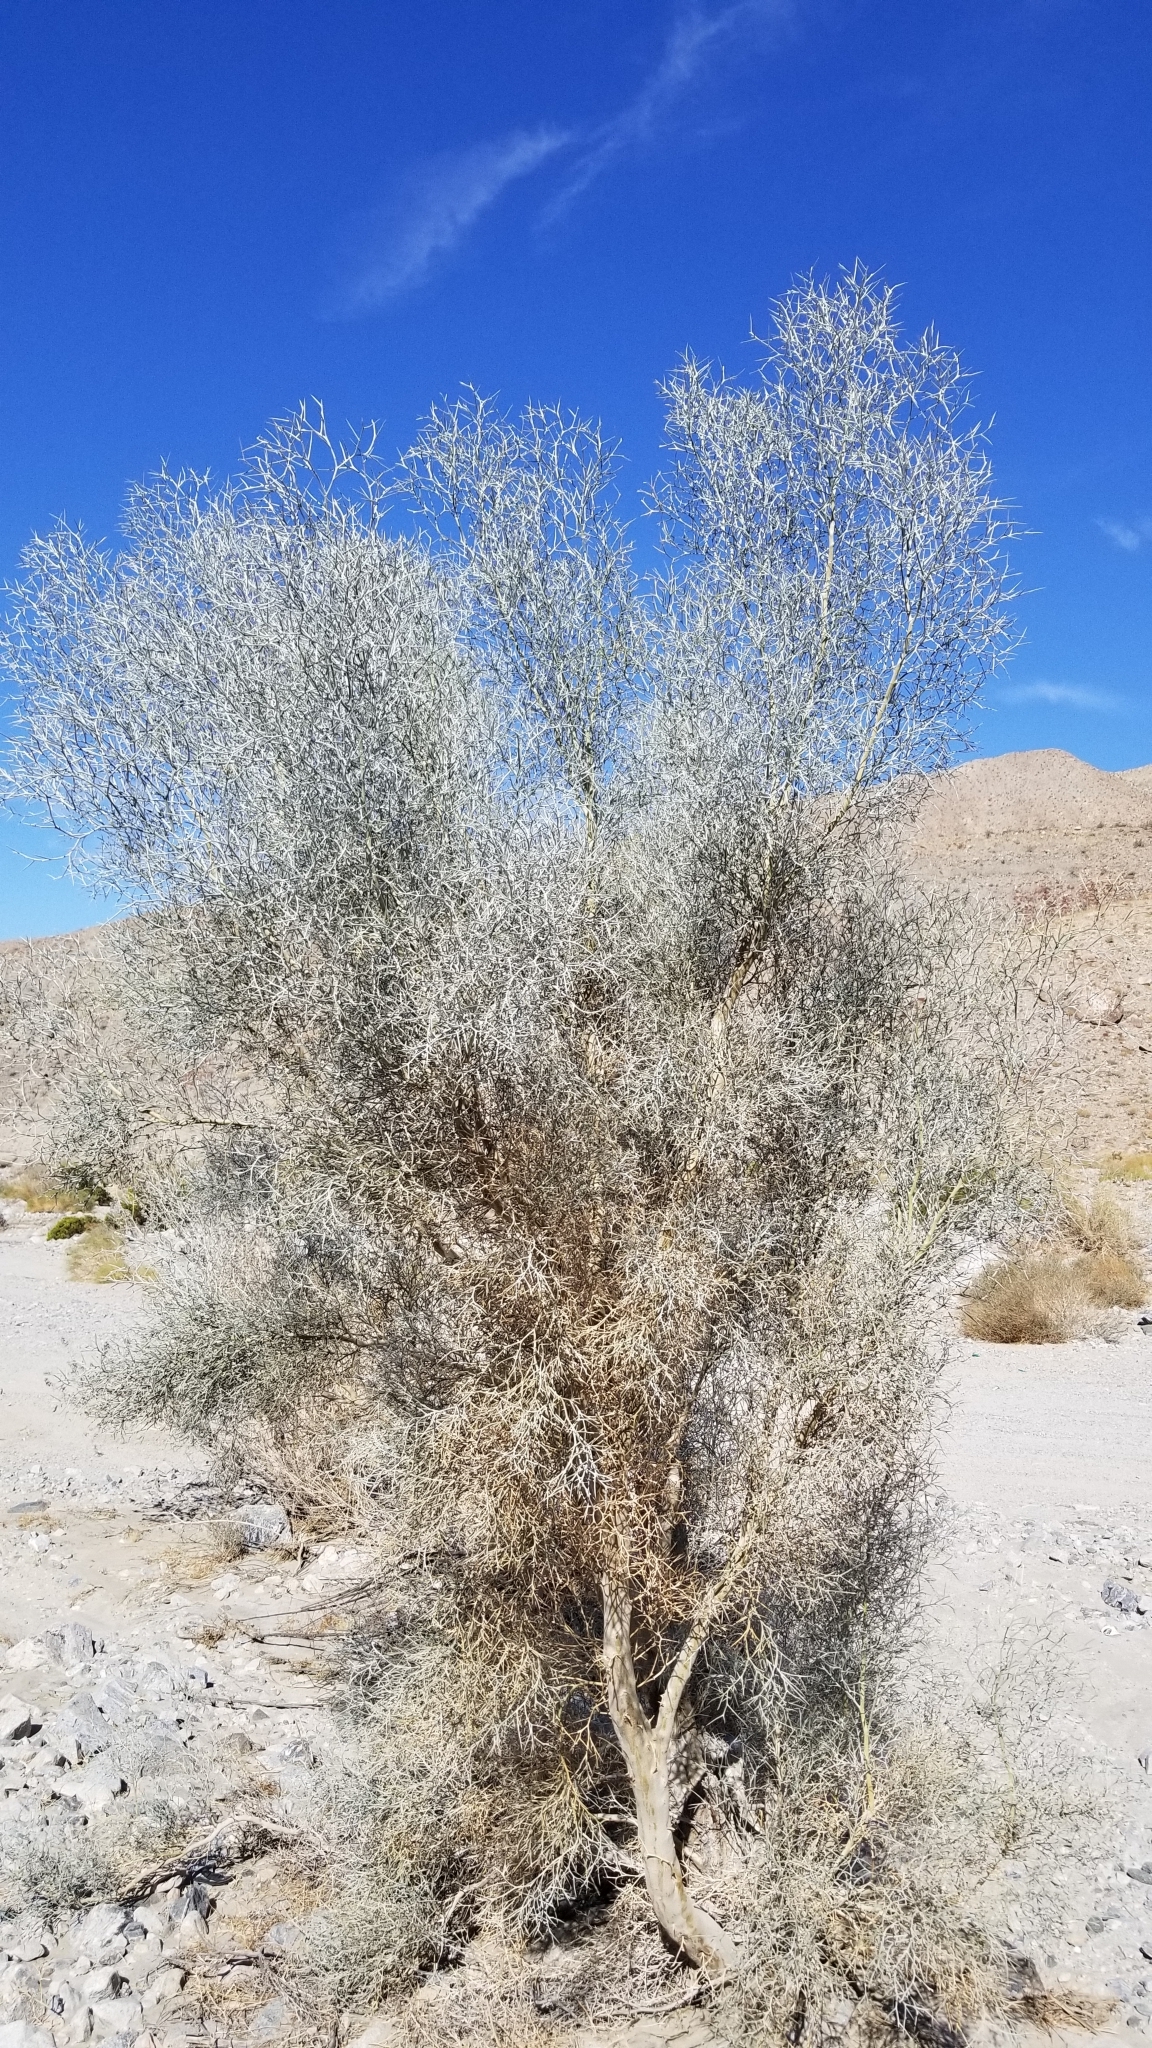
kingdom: Plantae
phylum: Tracheophyta
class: Magnoliopsida
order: Fabales
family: Fabaceae
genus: Psorothamnus
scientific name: Psorothamnus spinosus
